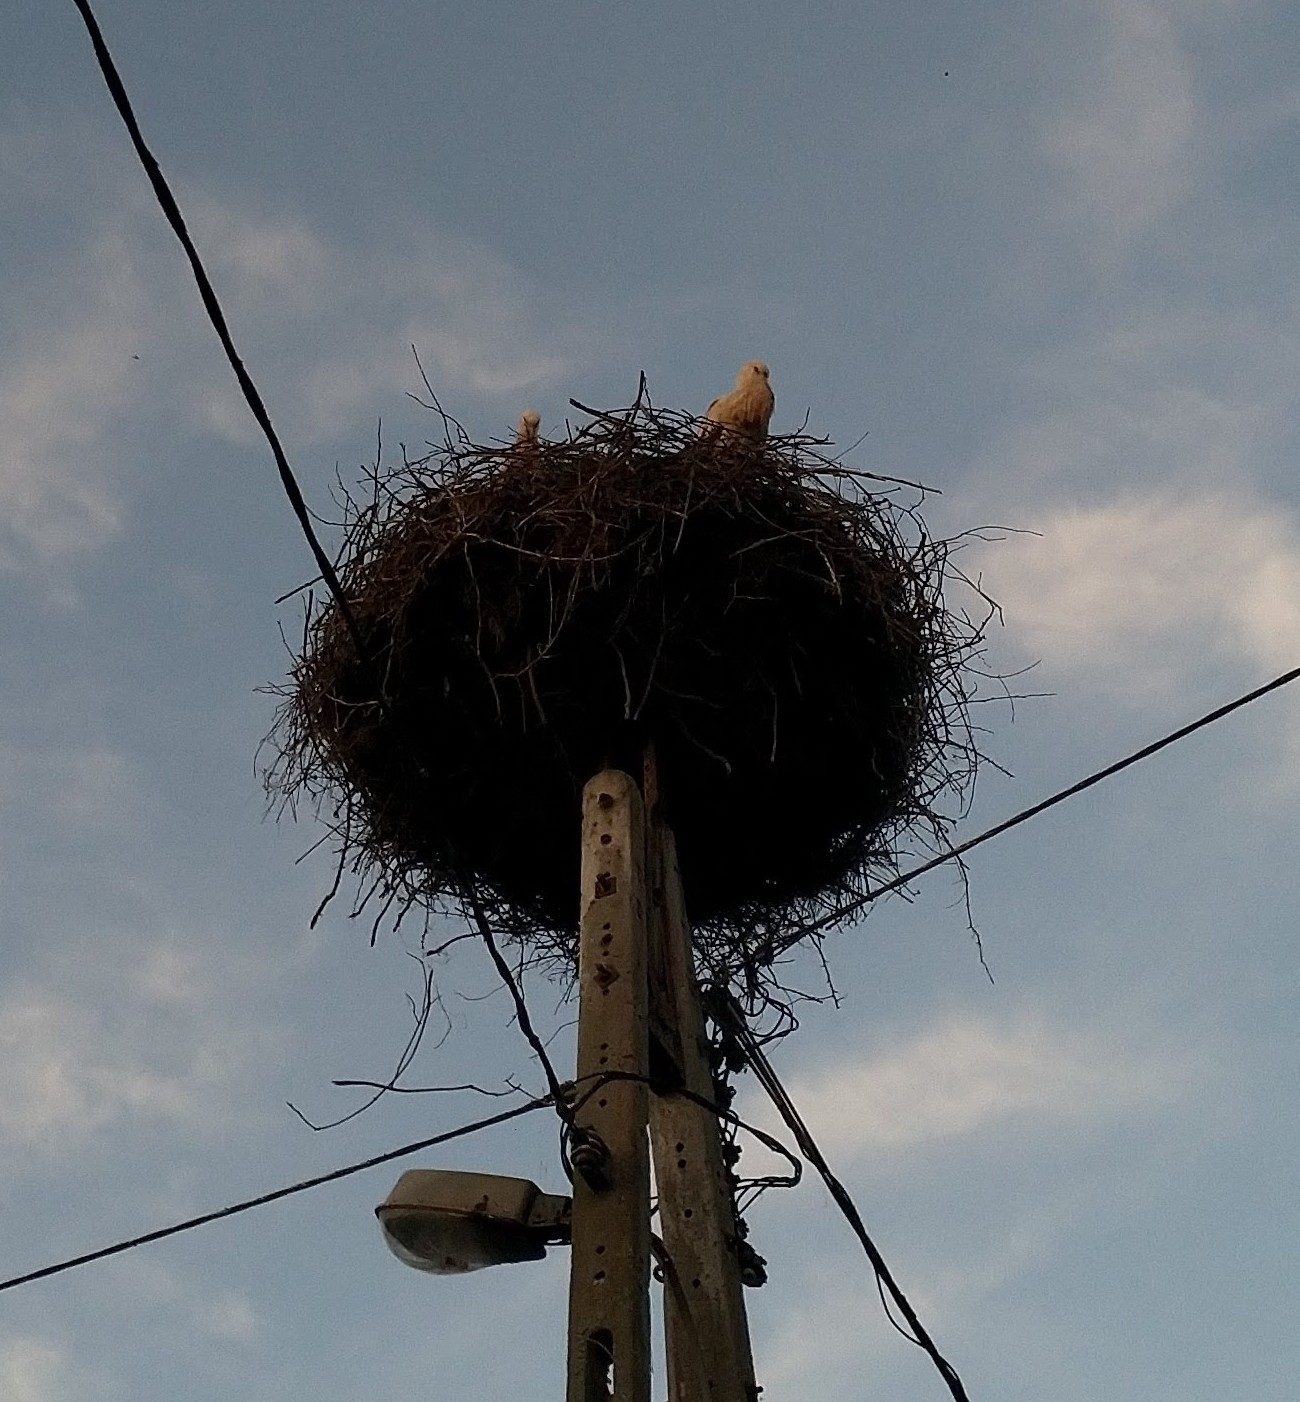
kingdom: Animalia
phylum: Chordata
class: Aves
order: Ciconiiformes
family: Ciconiidae
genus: Ciconia
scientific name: Ciconia ciconia
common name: White stork
